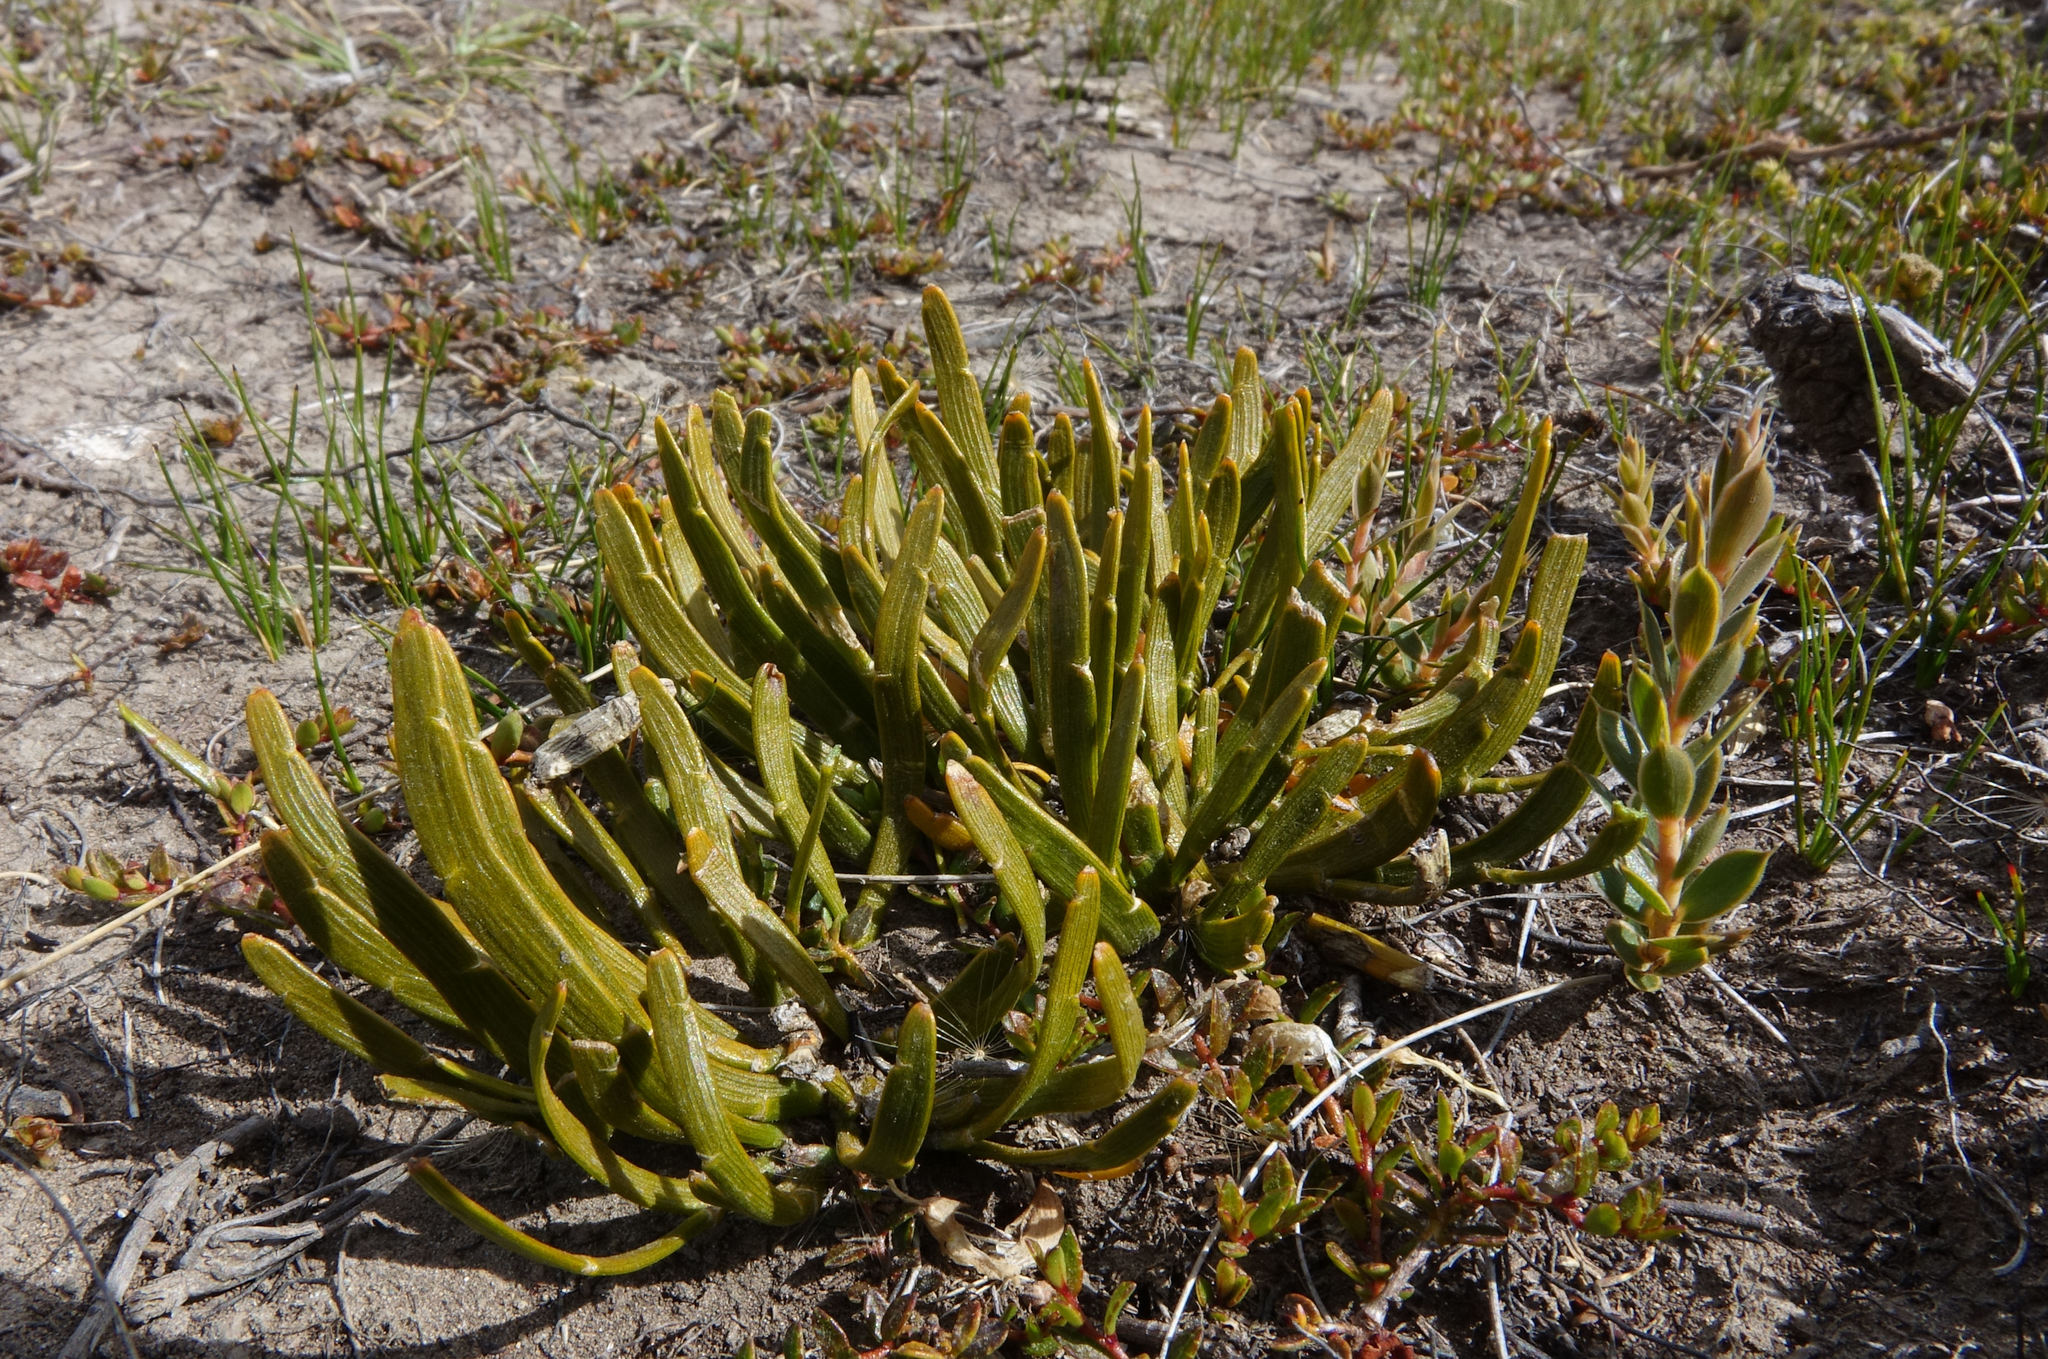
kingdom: Plantae
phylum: Tracheophyta
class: Magnoliopsida
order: Fabales
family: Fabaceae
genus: Carmichaelia
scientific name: Carmichaelia corrugata
